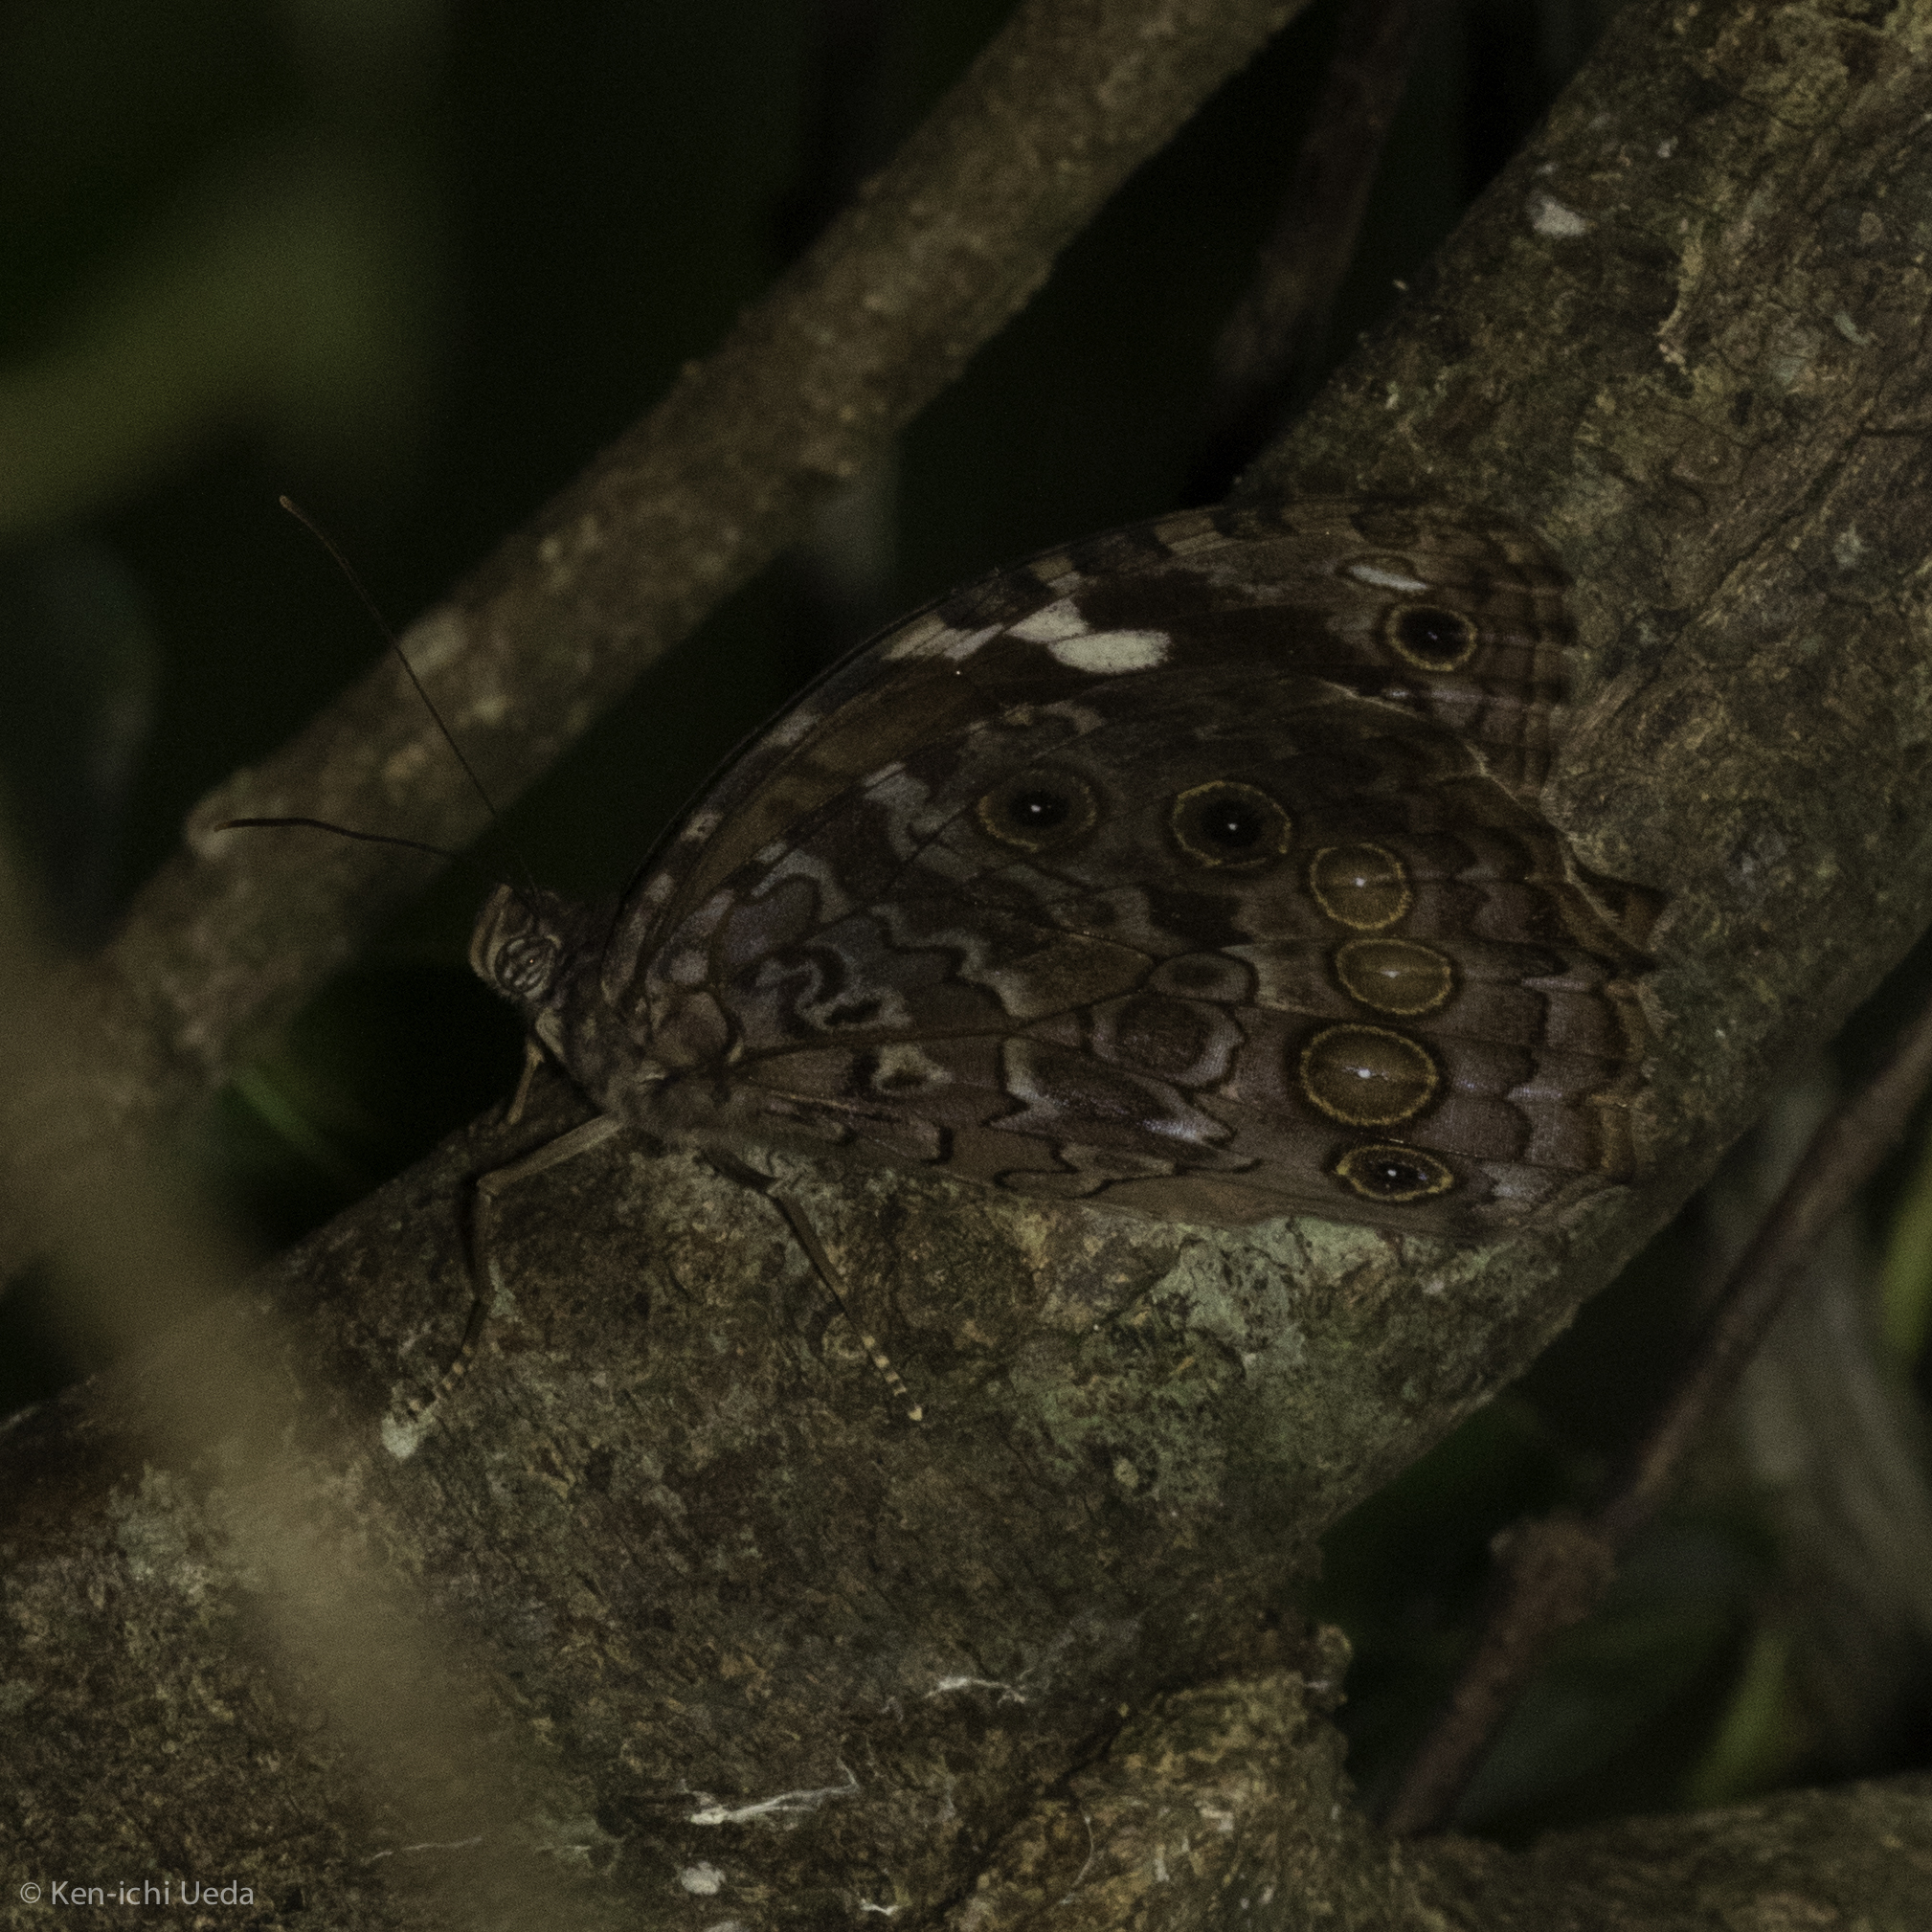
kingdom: Animalia
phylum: Arthropoda
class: Insecta
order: Lepidoptera
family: Nymphalidae
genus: Manataria
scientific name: Manataria maculata
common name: White-spotted satyr
